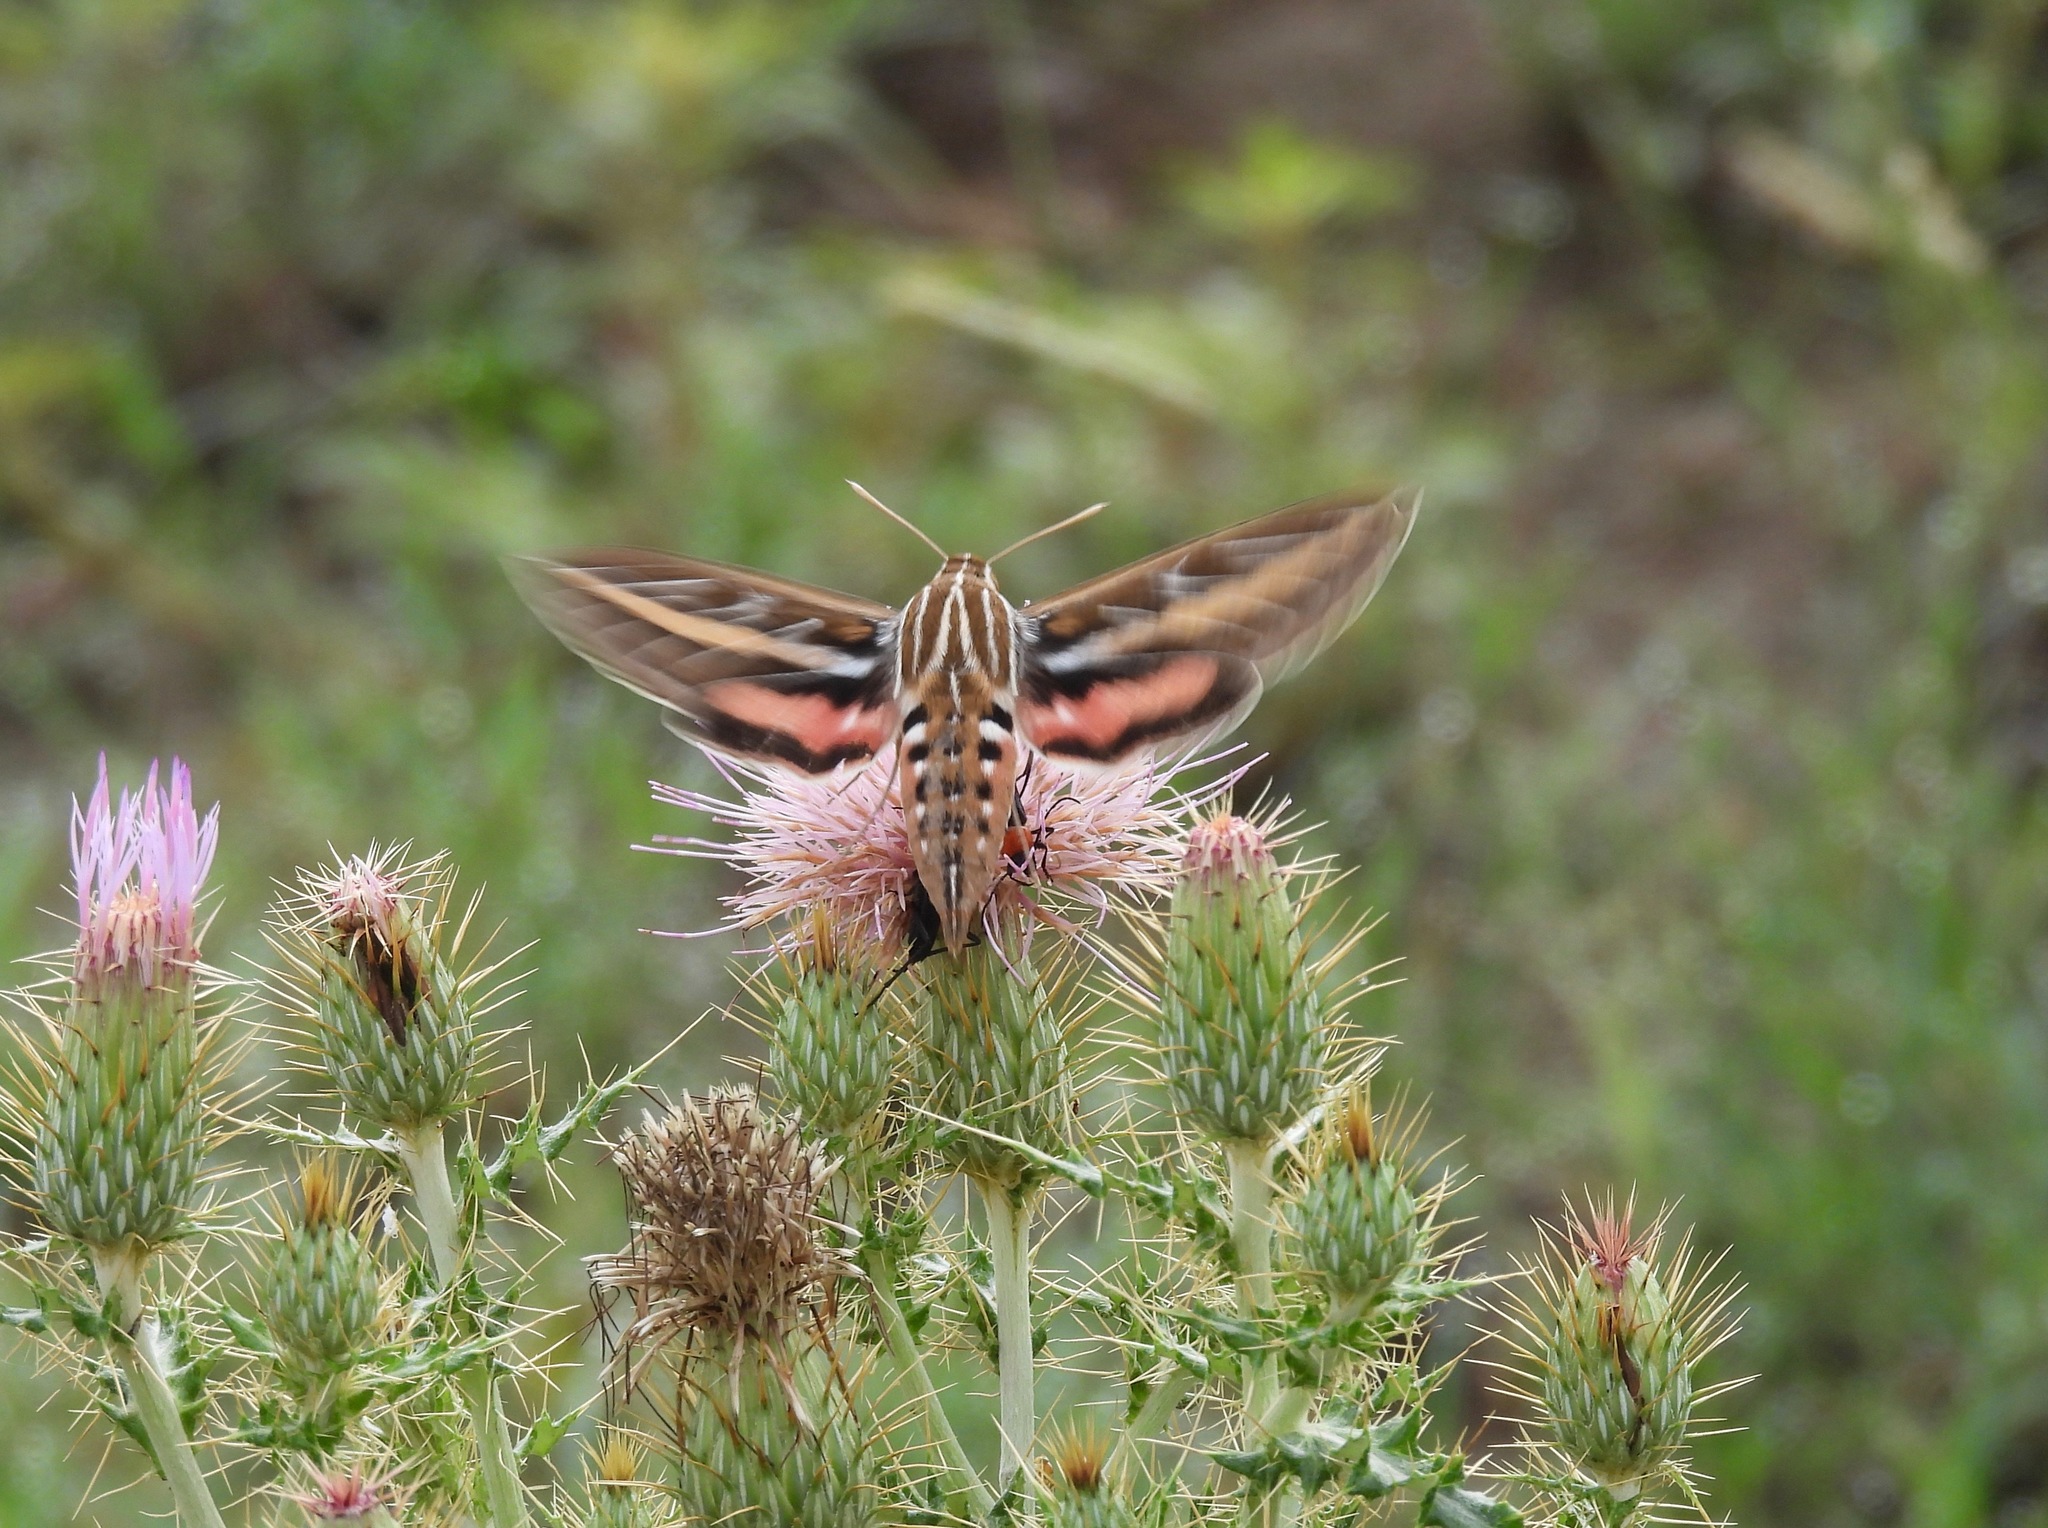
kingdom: Animalia
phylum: Arthropoda
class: Insecta
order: Lepidoptera
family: Sphingidae
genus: Hyles
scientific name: Hyles lineata
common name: White-lined sphinx
